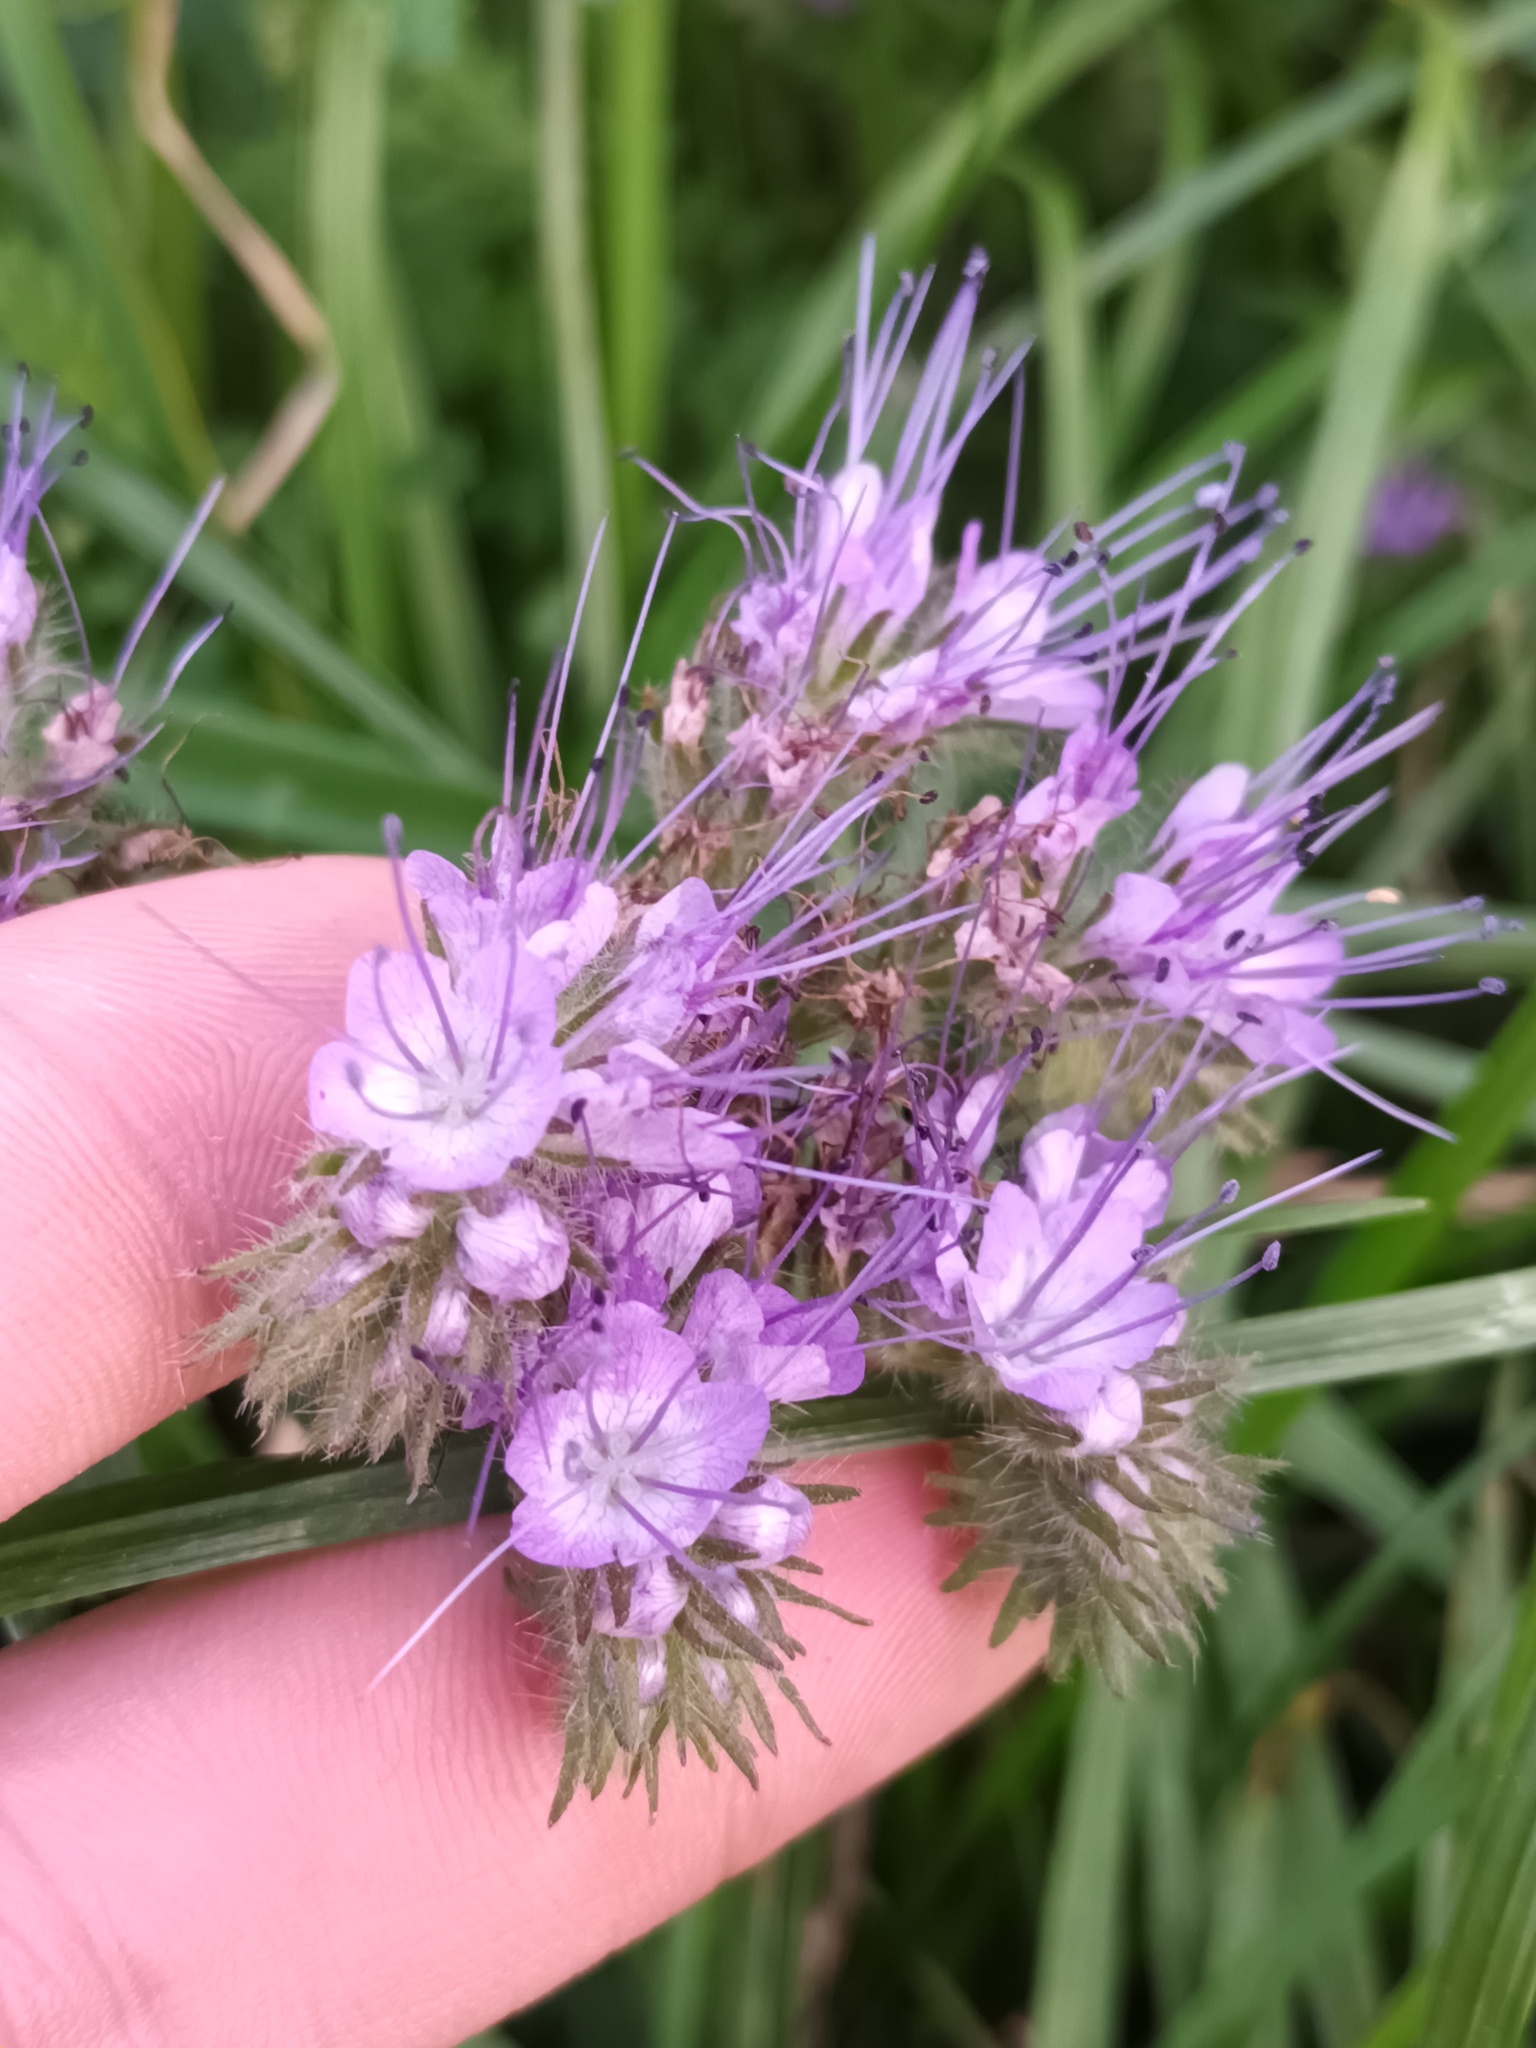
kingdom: Plantae
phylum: Tracheophyta
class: Magnoliopsida
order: Boraginales
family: Hydrophyllaceae
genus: Phacelia
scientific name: Phacelia tanacetifolia
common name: Phacelia
